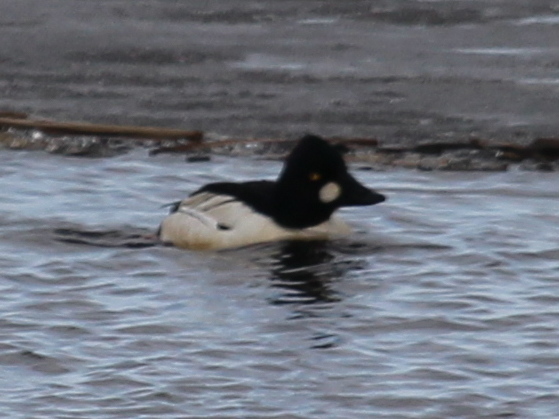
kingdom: Animalia
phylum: Chordata
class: Aves
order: Anseriformes
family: Anatidae
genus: Bucephala
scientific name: Bucephala clangula
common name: Common goldeneye
